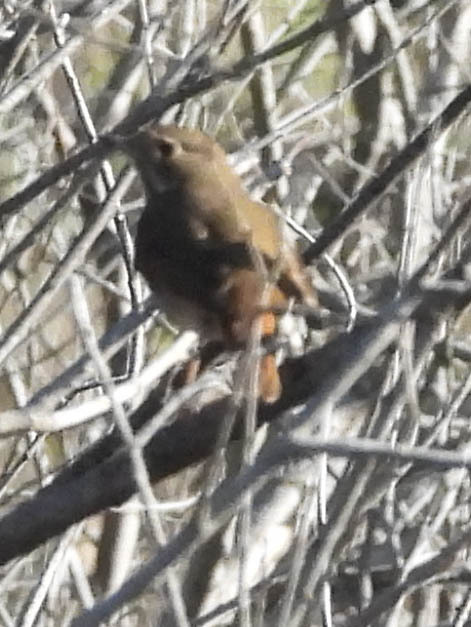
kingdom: Animalia
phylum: Chordata
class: Aves
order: Passeriformes
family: Turdidae
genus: Catharus
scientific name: Catharus guttatus
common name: Hermit thrush
